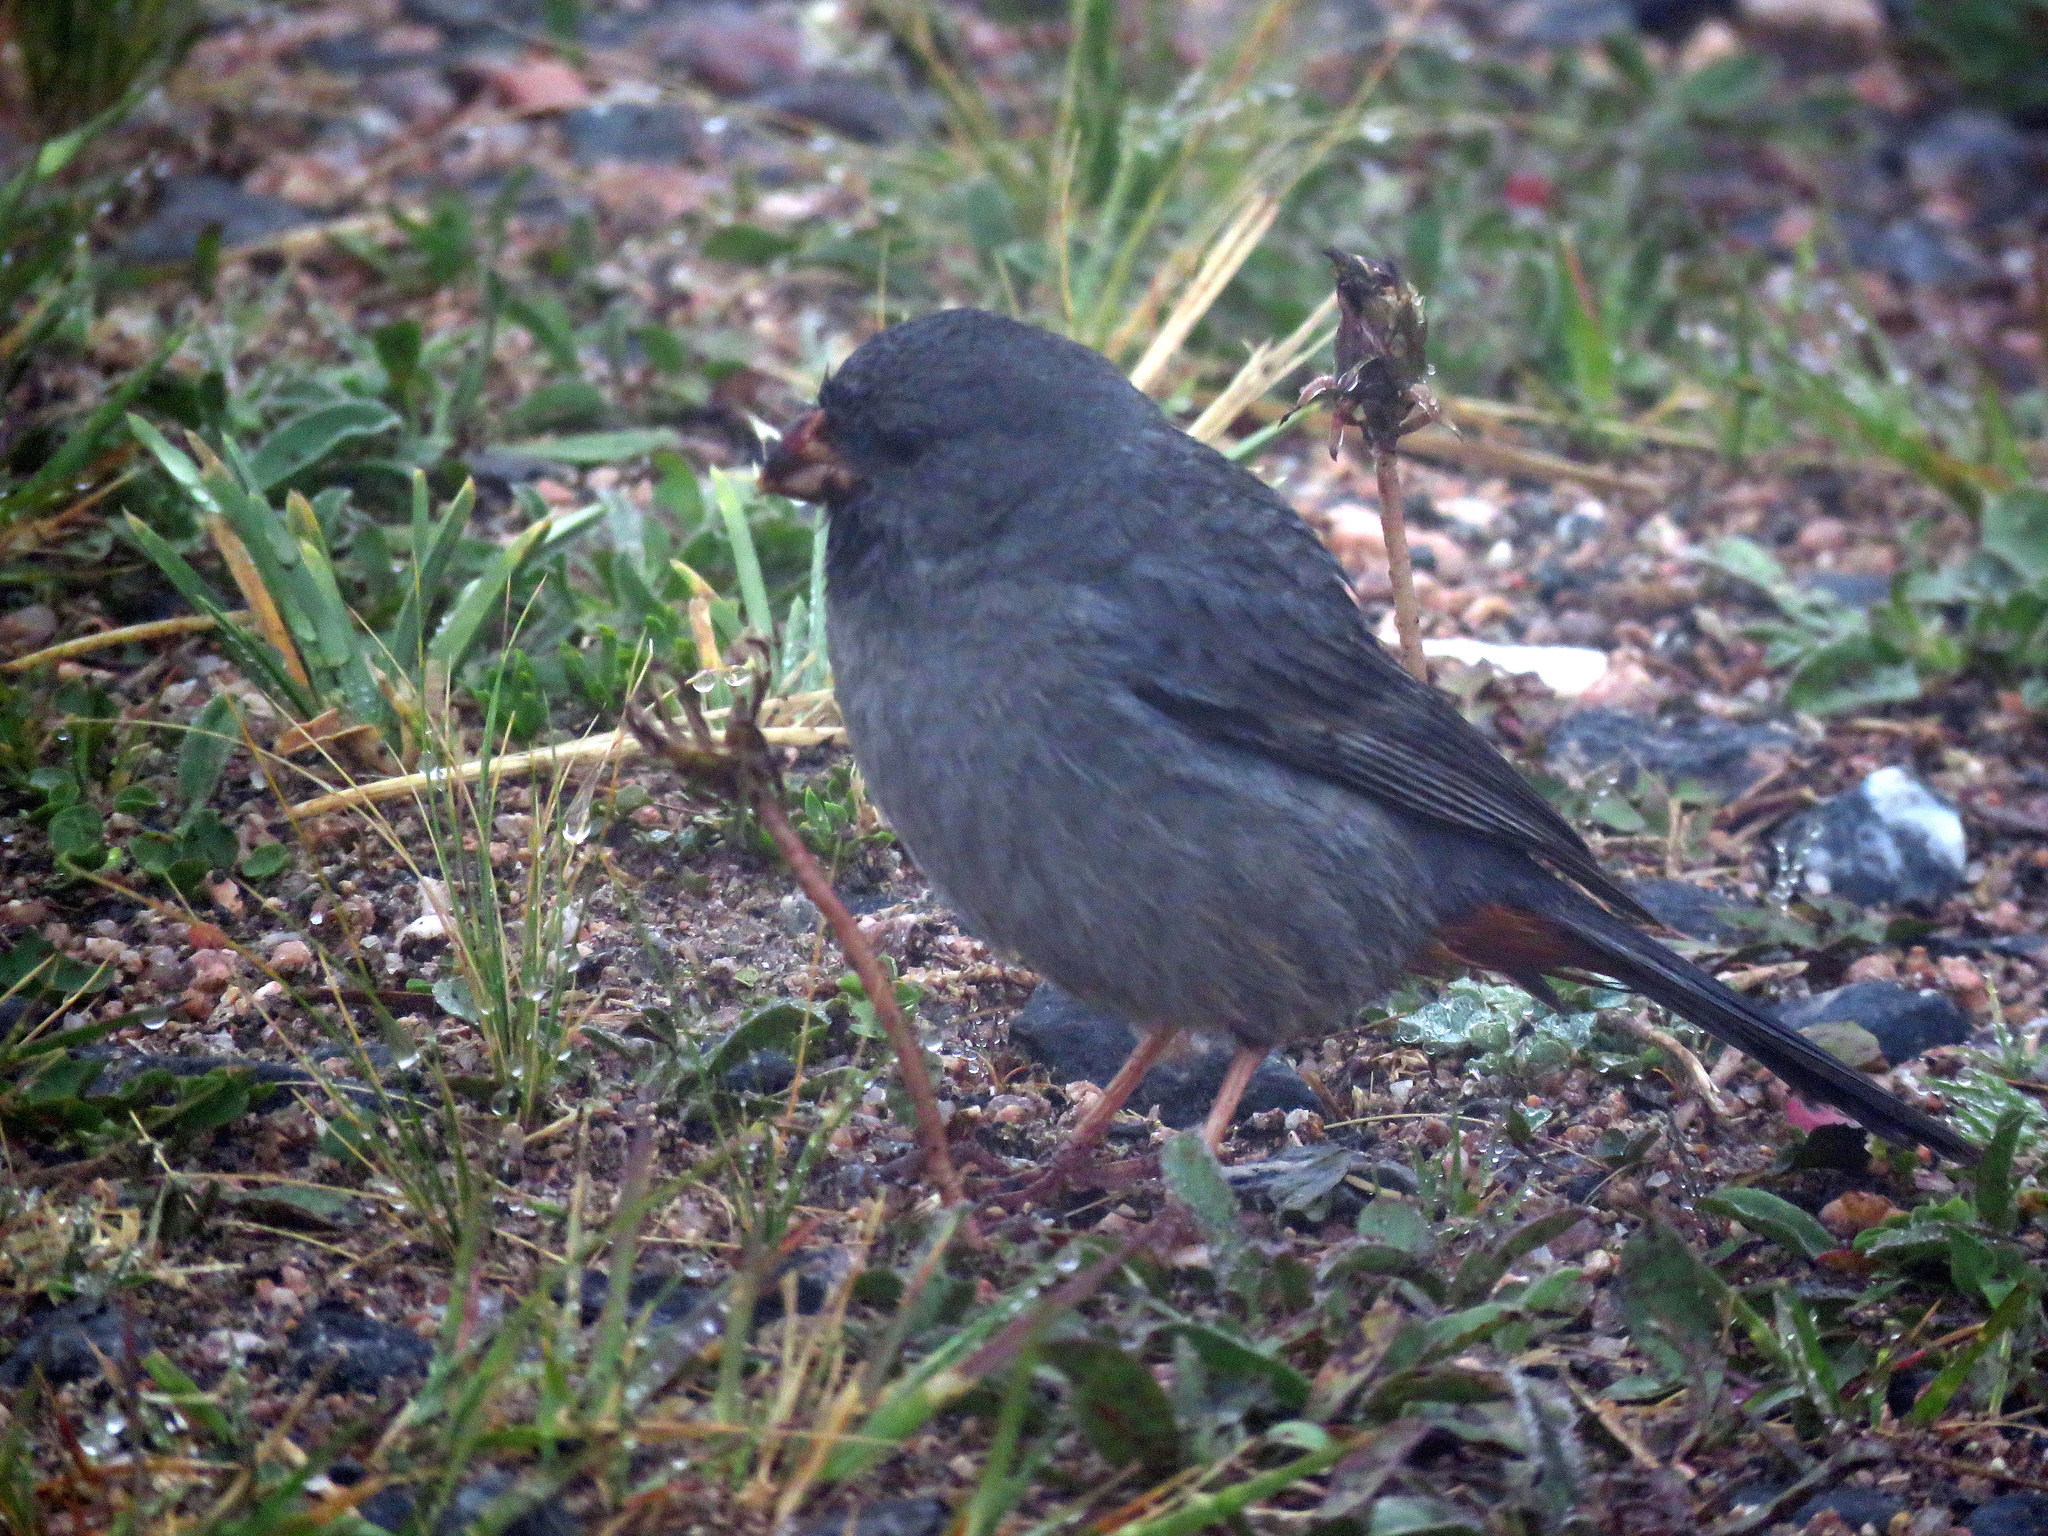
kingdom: Animalia
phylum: Chordata
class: Aves
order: Passeriformes
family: Thraupidae
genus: Catamenia
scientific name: Catamenia inornata
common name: Plain-colored seedeater
